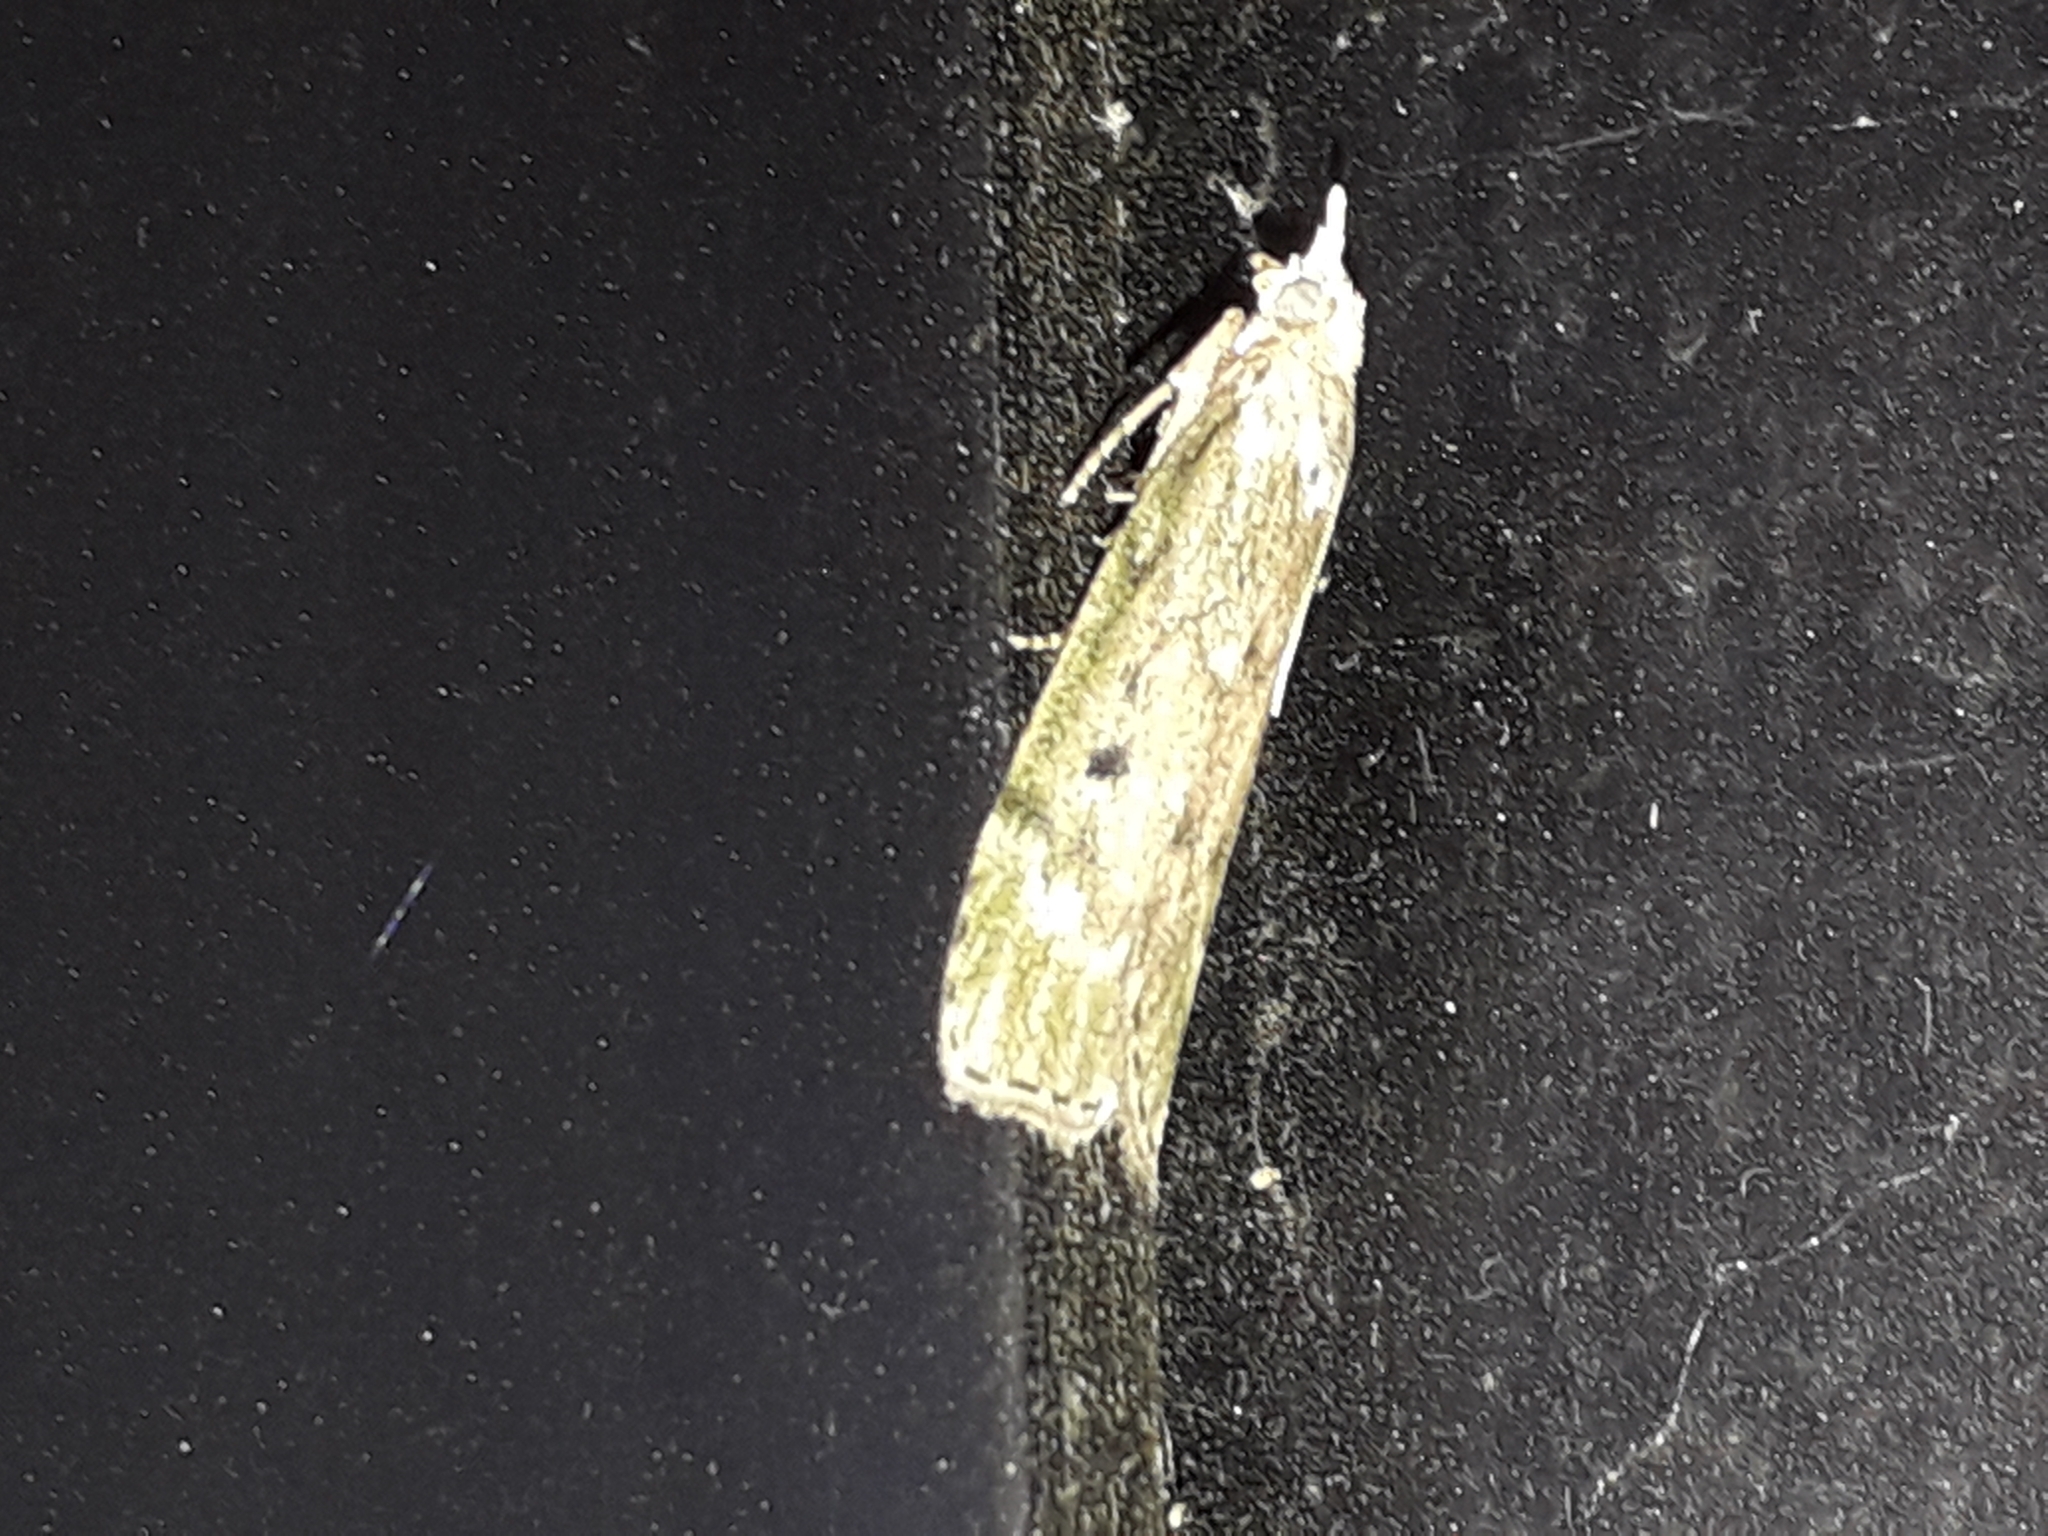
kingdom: Animalia
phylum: Arthropoda
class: Insecta
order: Lepidoptera
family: Pyralidae
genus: Aphomia
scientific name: Aphomia sociella
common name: Bee moth
